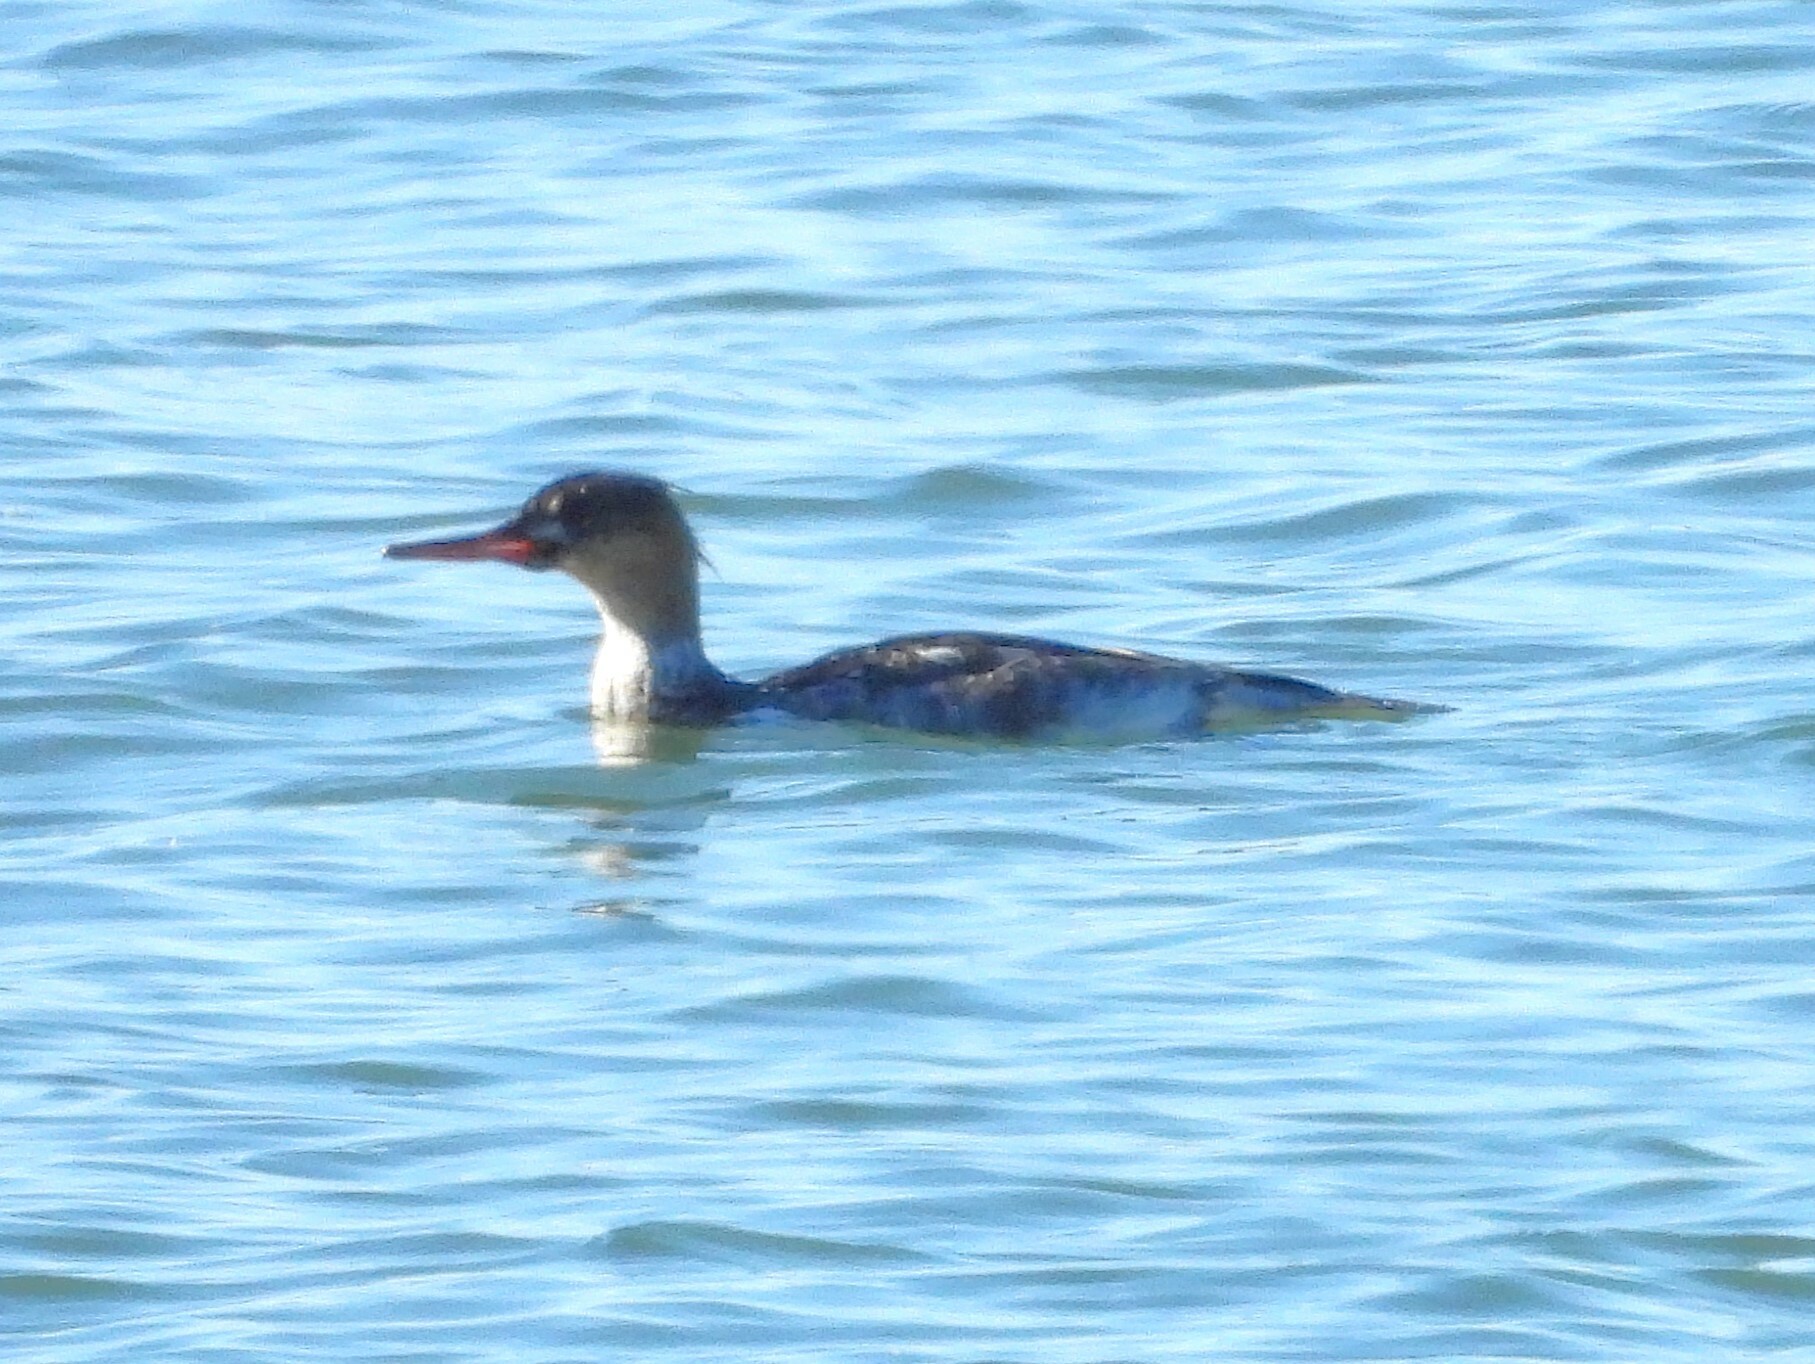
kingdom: Animalia
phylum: Chordata
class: Aves
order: Anseriformes
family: Anatidae
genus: Mergus
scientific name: Mergus serrator
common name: Red-breasted merganser
